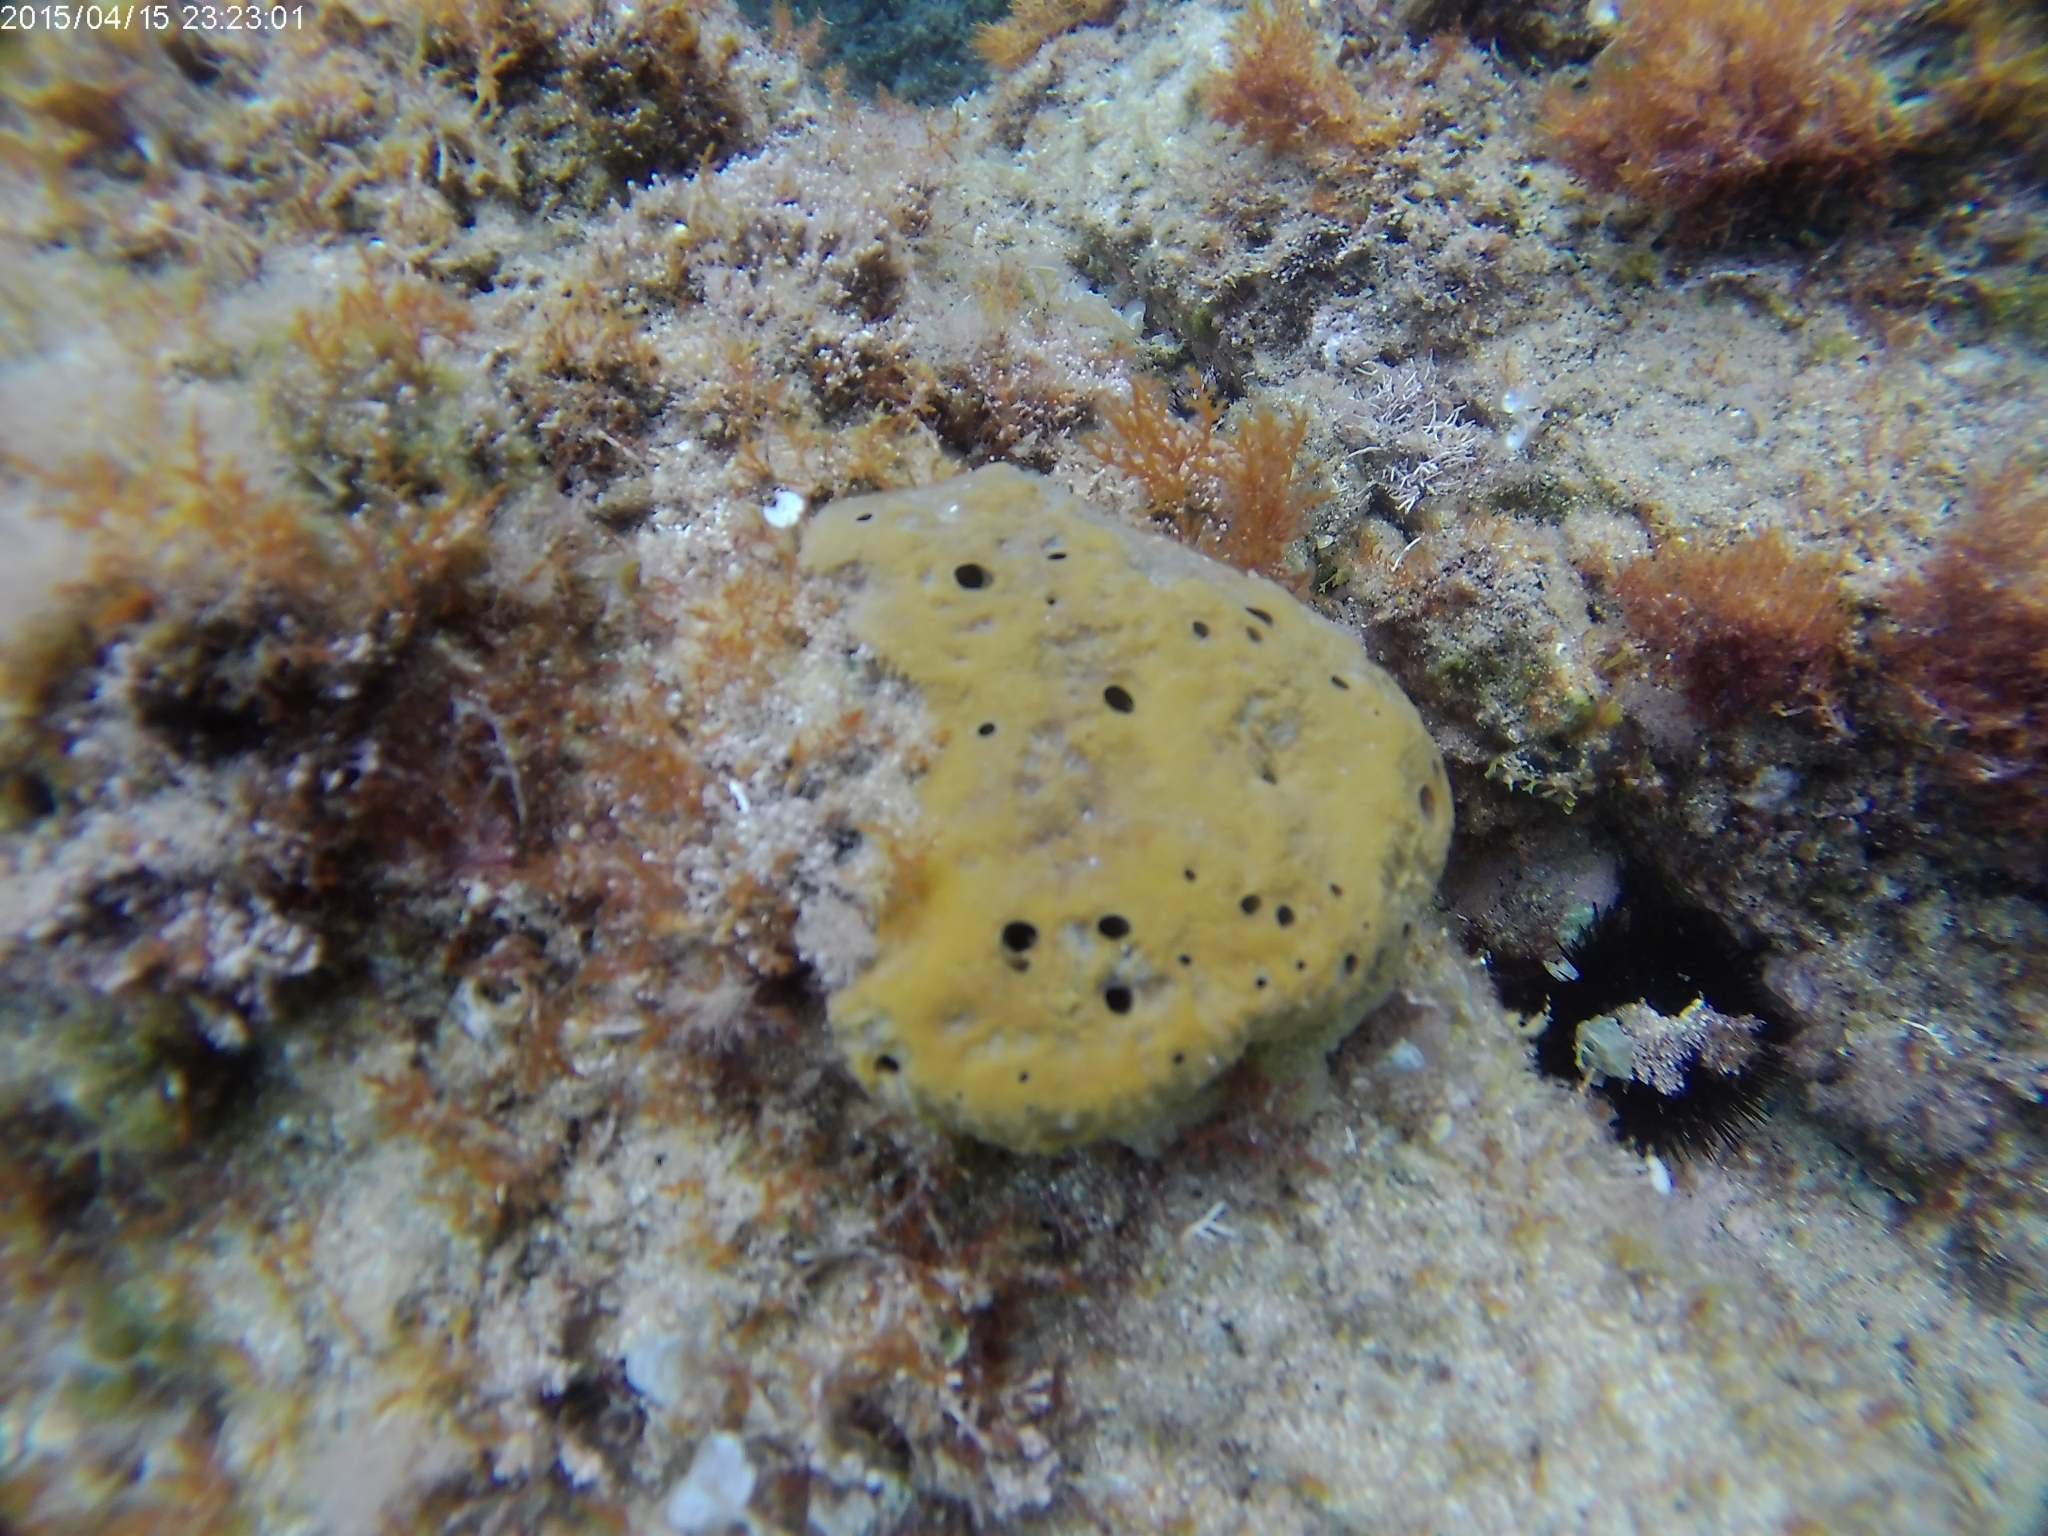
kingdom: Animalia
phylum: Porifera
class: Demospongiae
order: Dictyoceratida
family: Irciniidae
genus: Sarcotragus
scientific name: Sarcotragus fasciculatus
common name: Stinker sponge
